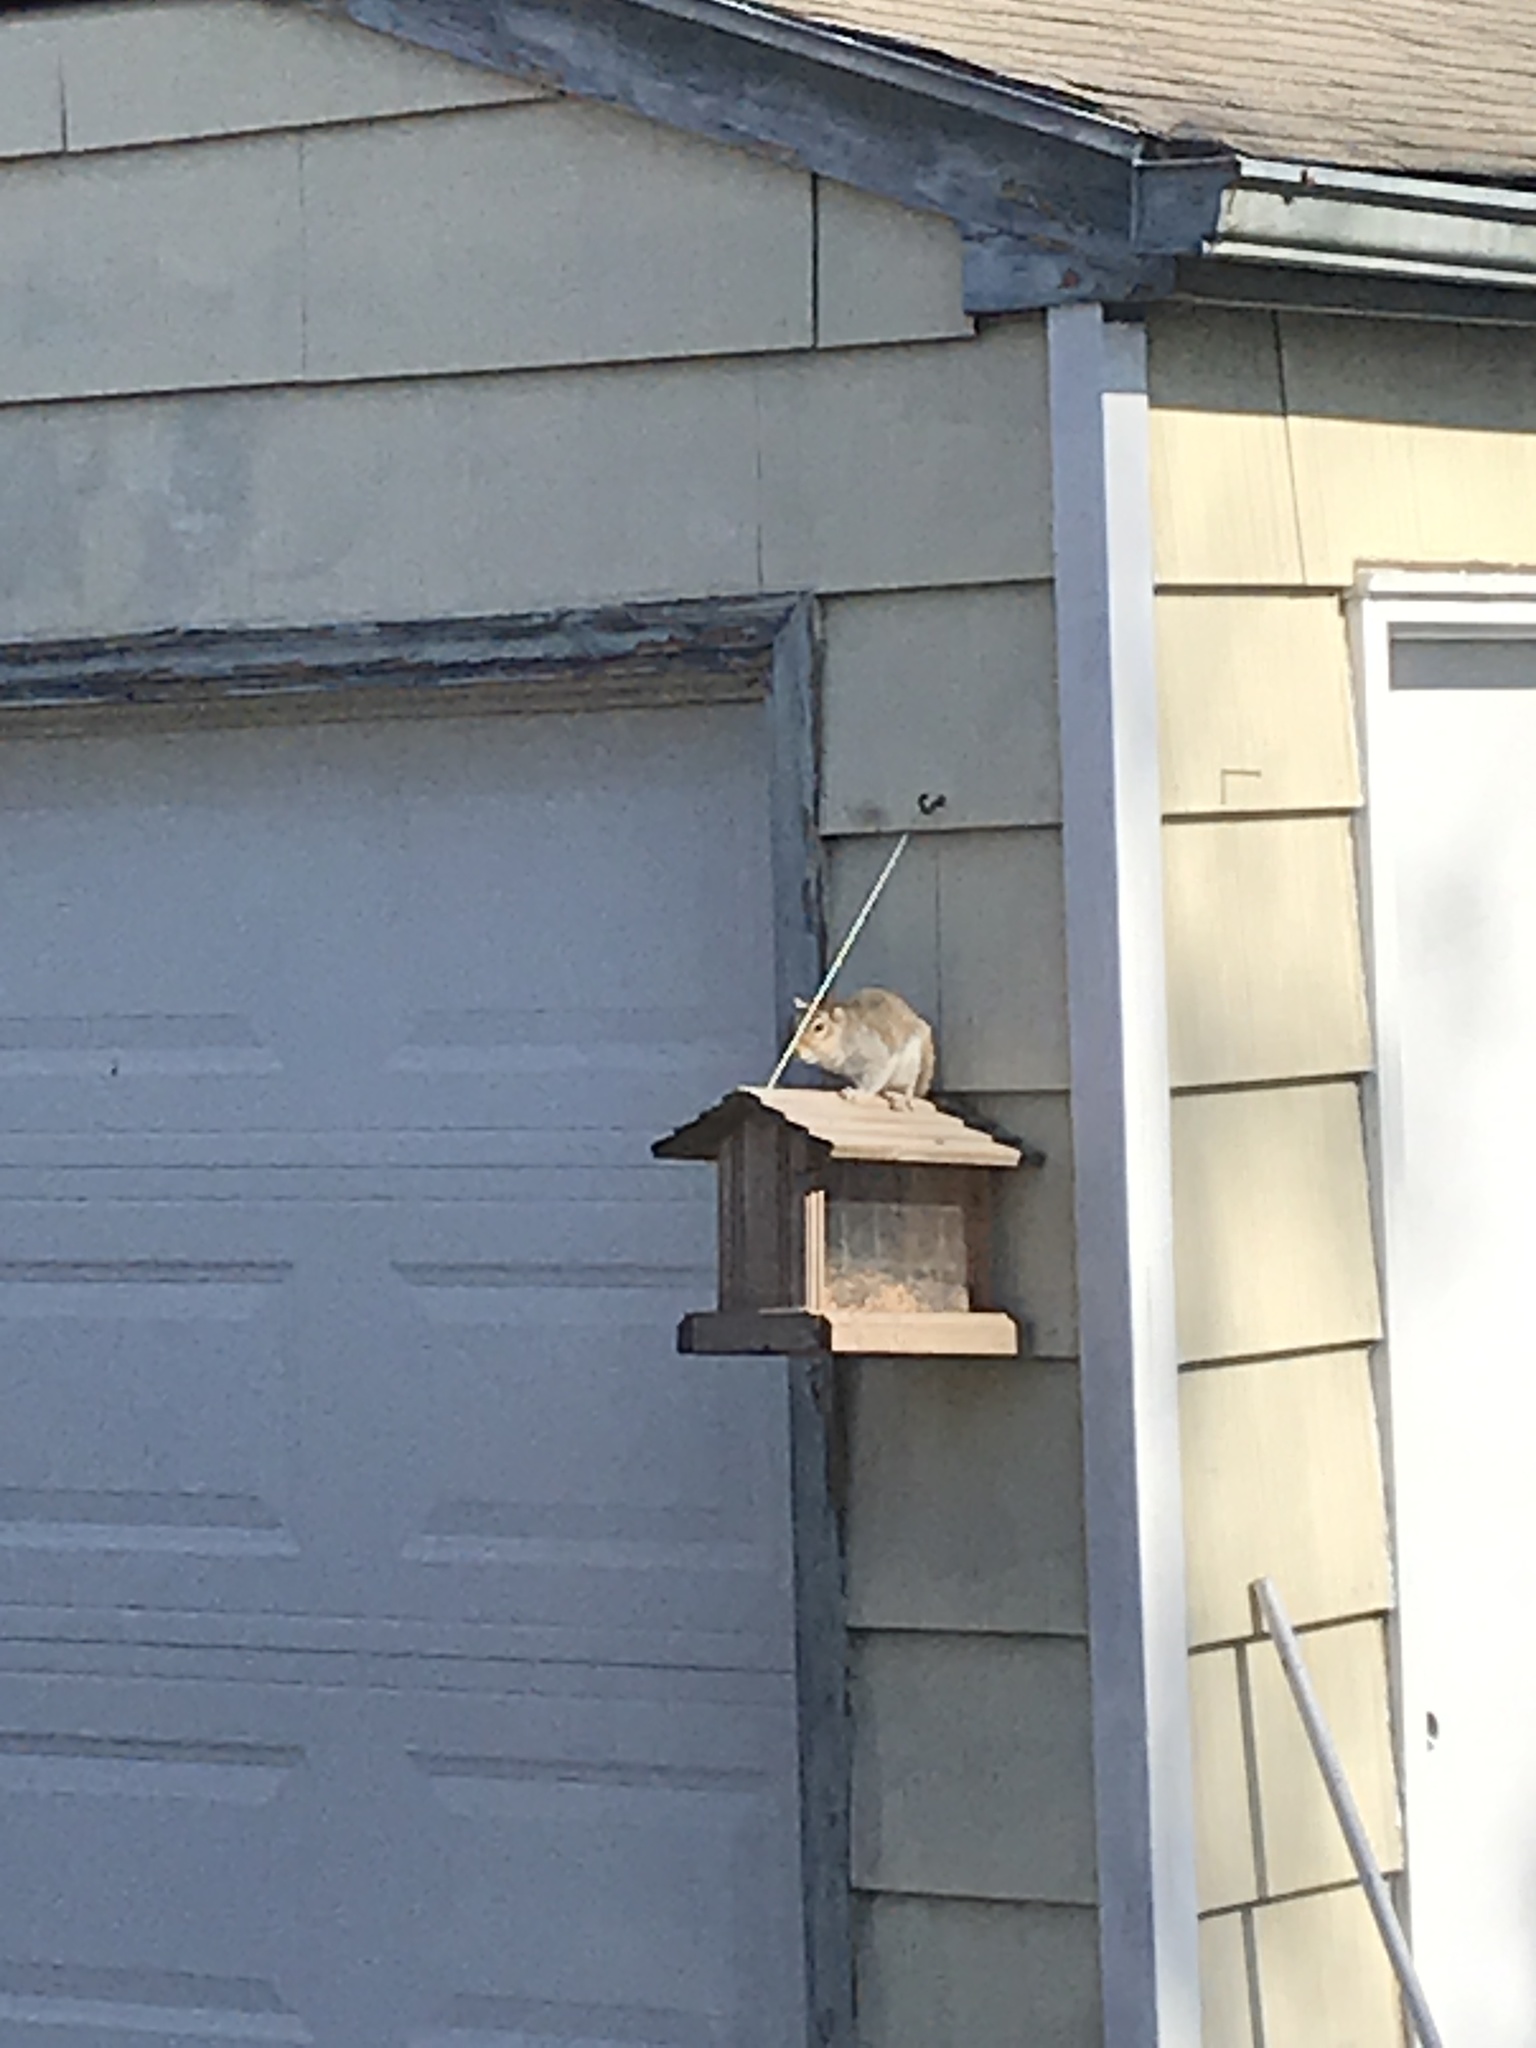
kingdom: Animalia
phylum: Chordata
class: Mammalia
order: Rodentia
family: Sciuridae
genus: Sciurus
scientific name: Sciurus carolinensis
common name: Eastern gray squirrel
